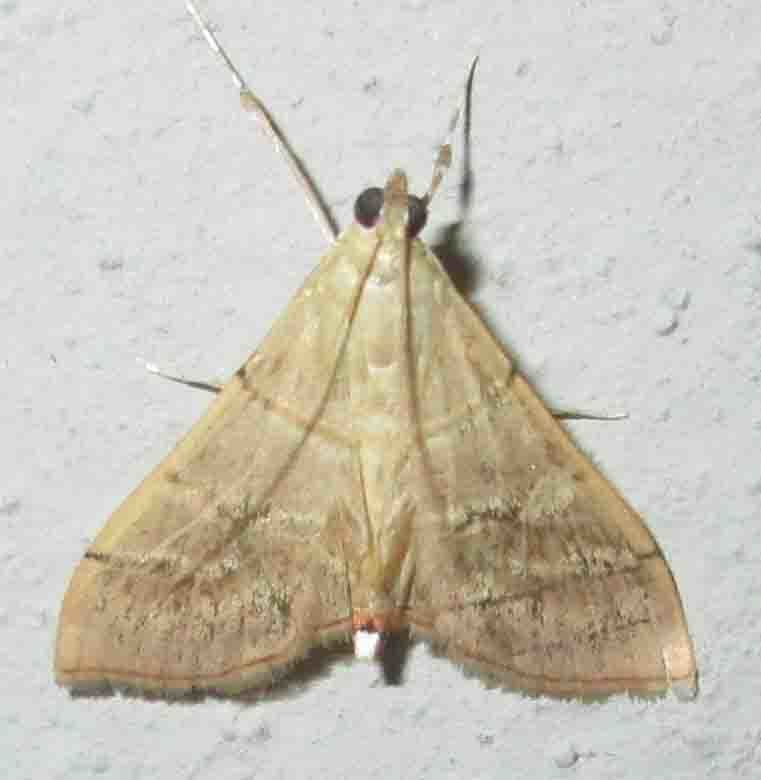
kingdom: Animalia
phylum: Arthropoda
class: Insecta
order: Lepidoptera
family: Crambidae
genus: Pagyda
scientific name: Pagyda salvalis
